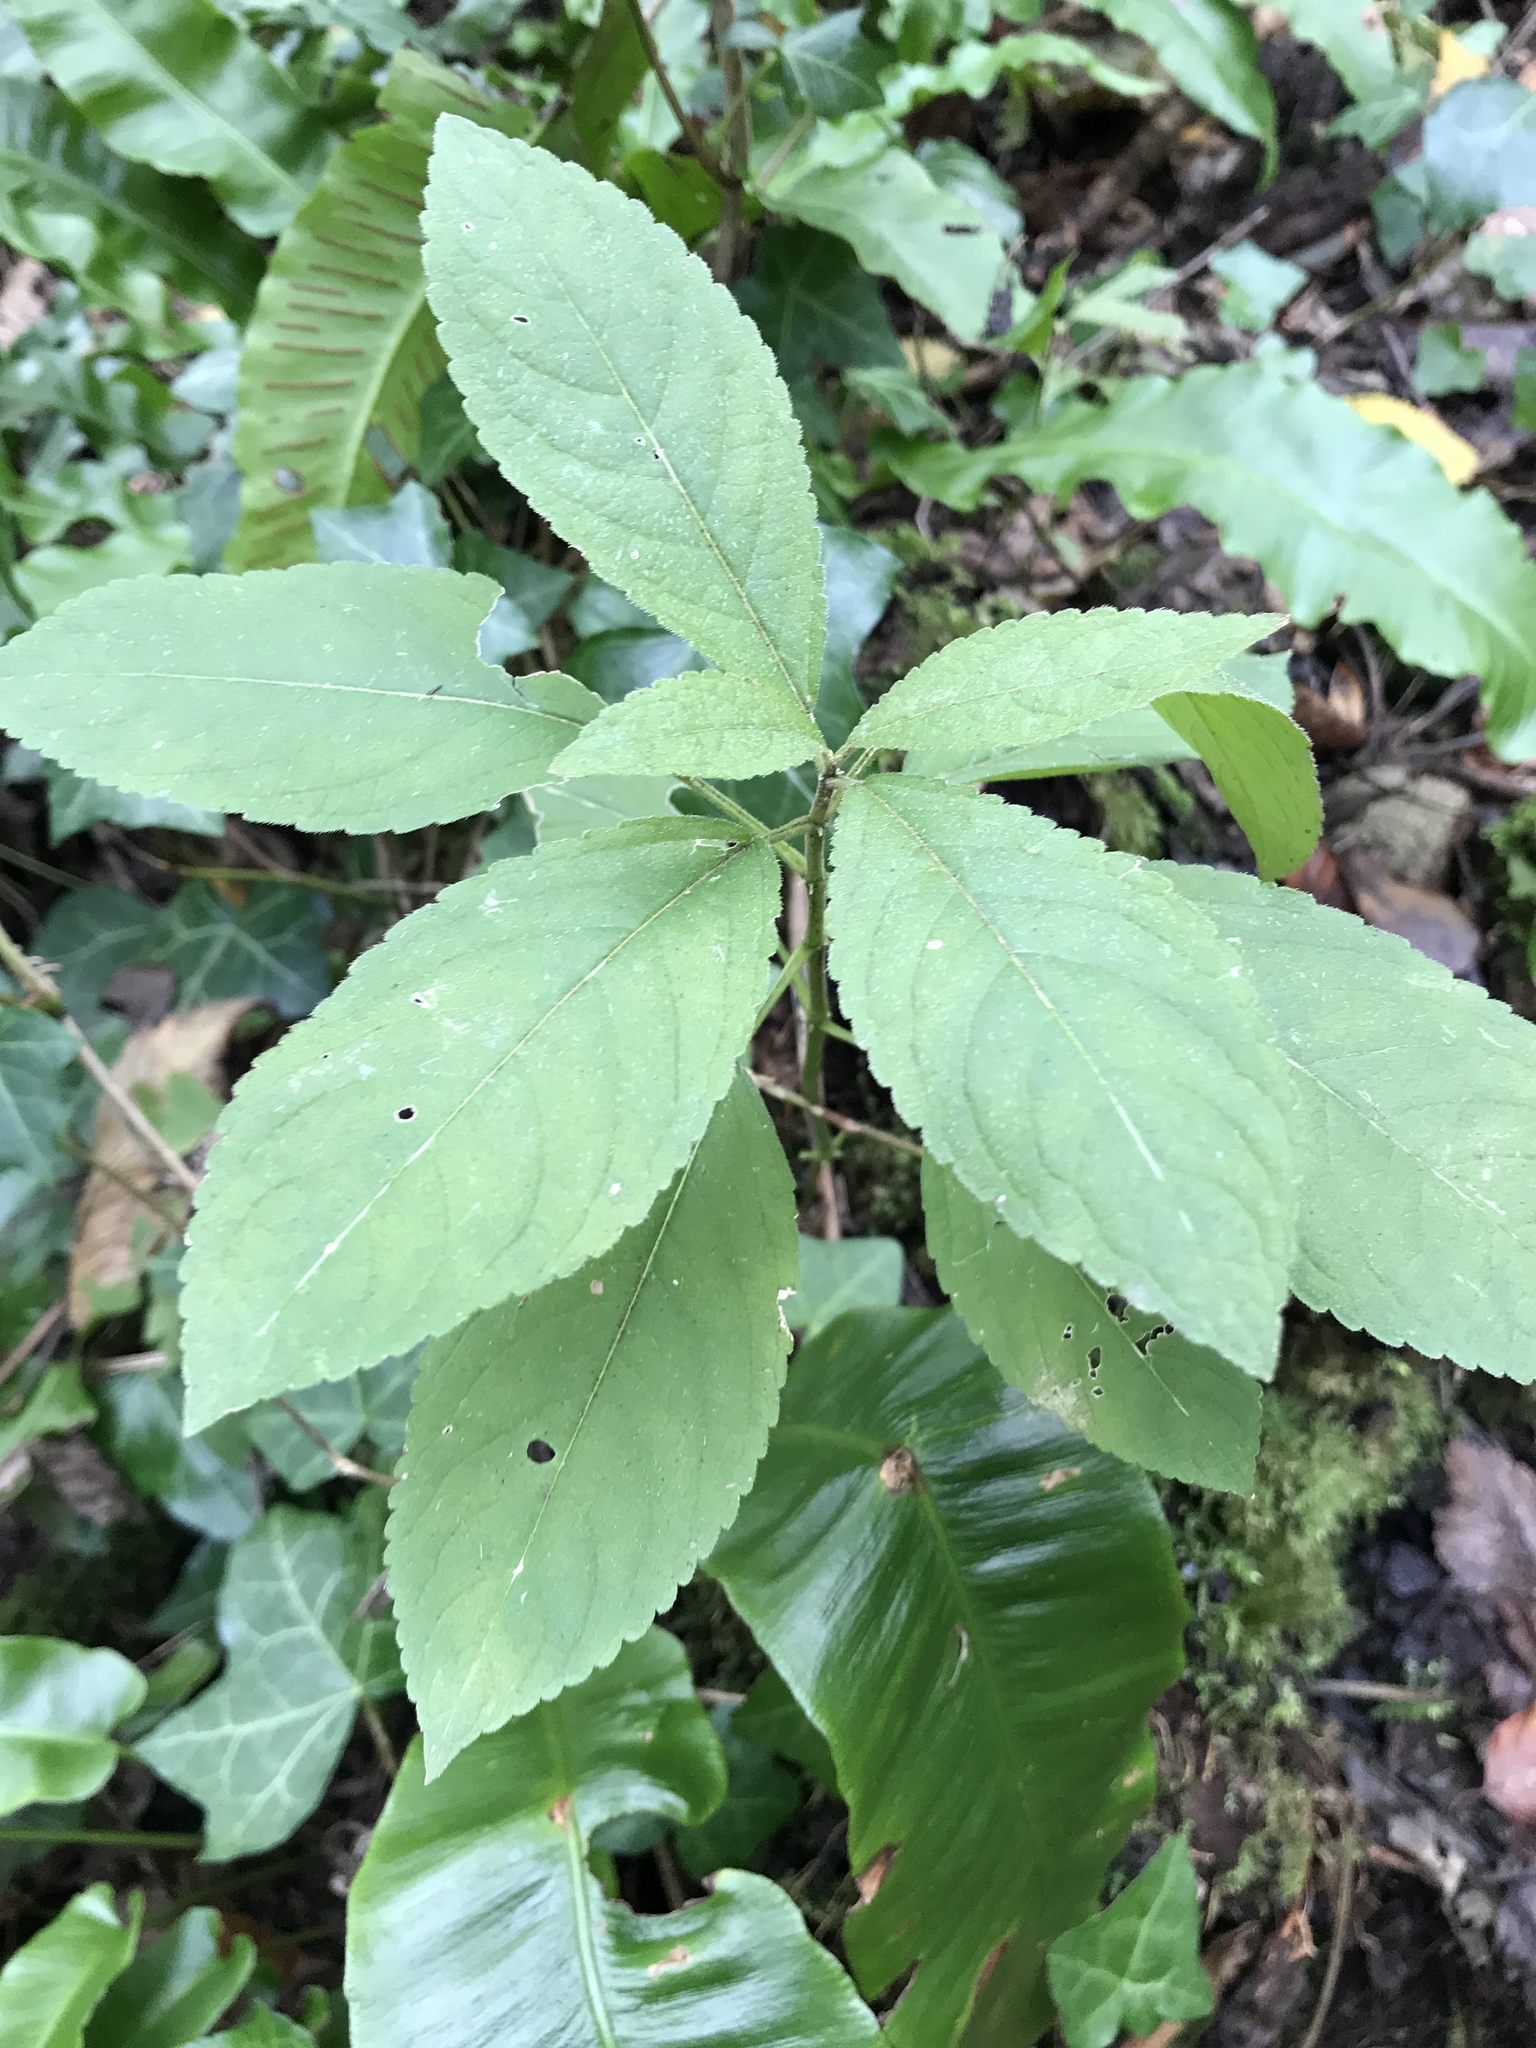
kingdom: Plantae
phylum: Tracheophyta
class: Magnoliopsida
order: Malpighiales
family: Euphorbiaceae
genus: Mercurialis
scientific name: Mercurialis perennis
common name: Dog mercury
